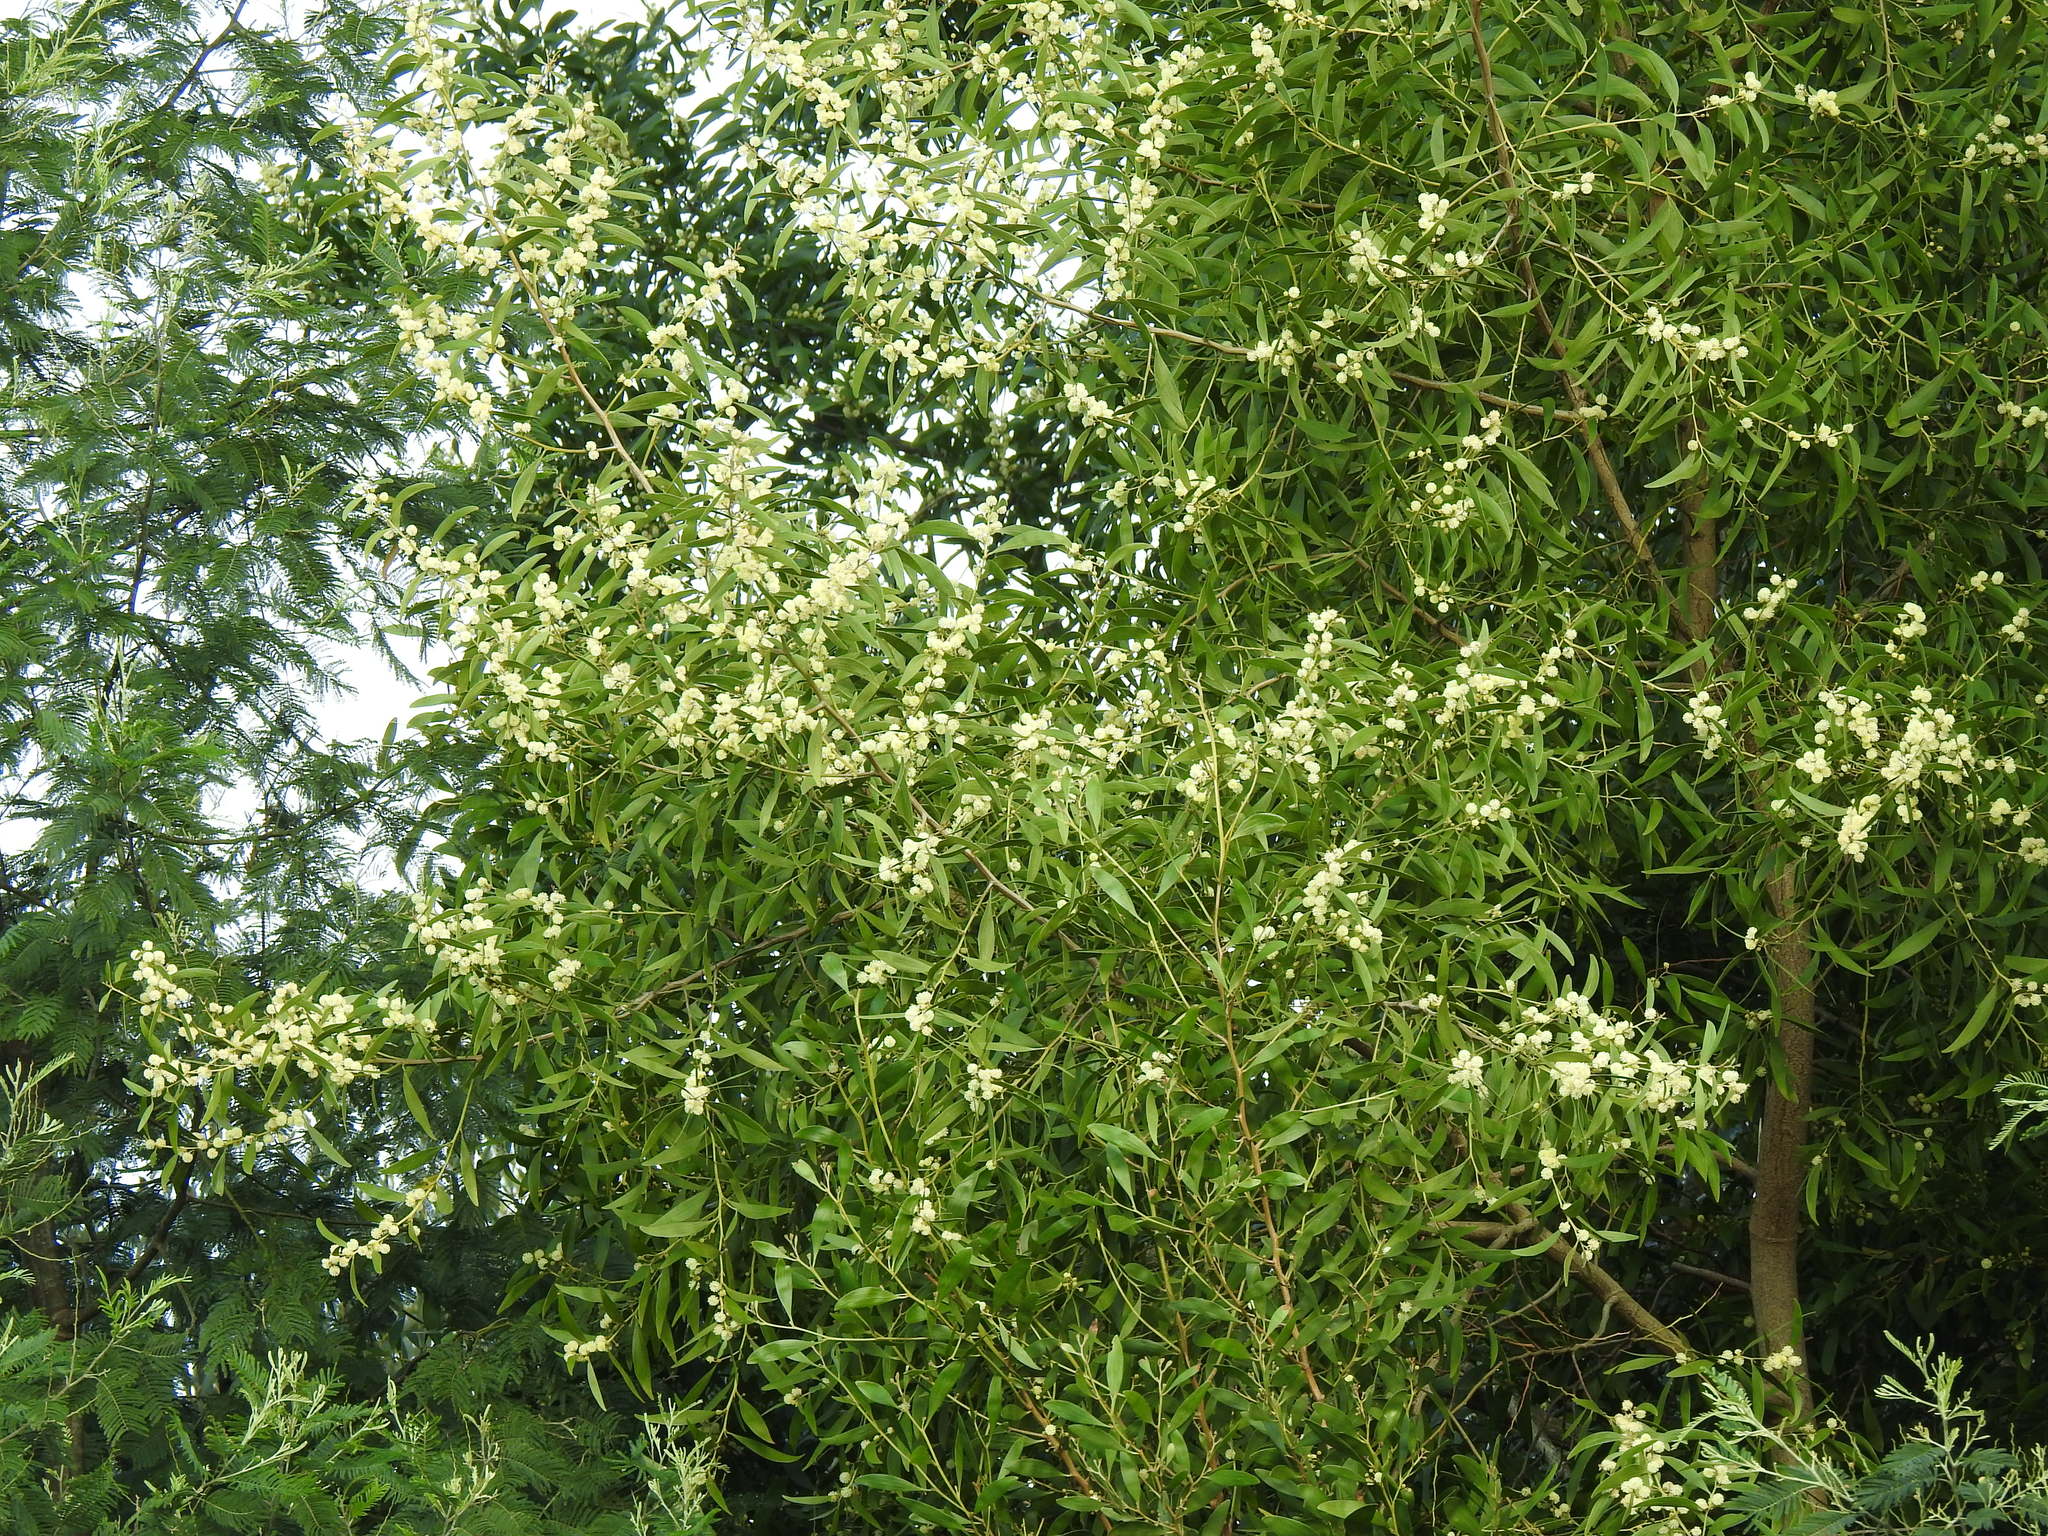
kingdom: Plantae
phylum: Tracheophyta
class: Magnoliopsida
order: Fabales
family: Fabaceae
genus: Acacia
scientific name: Acacia melanoxylon
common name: Blackwood
